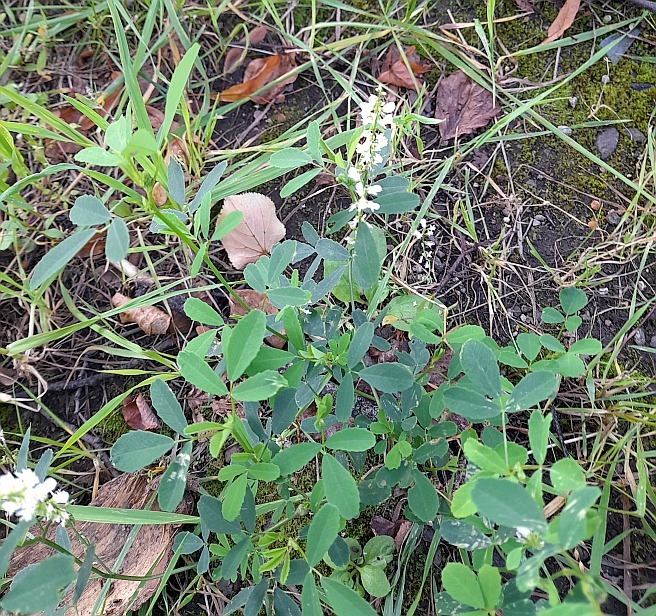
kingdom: Plantae
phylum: Tracheophyta
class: Magnoliopsida
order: Fabales
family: Fabaceae
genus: Melilotus
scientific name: Melilotus albus
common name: White melilot
